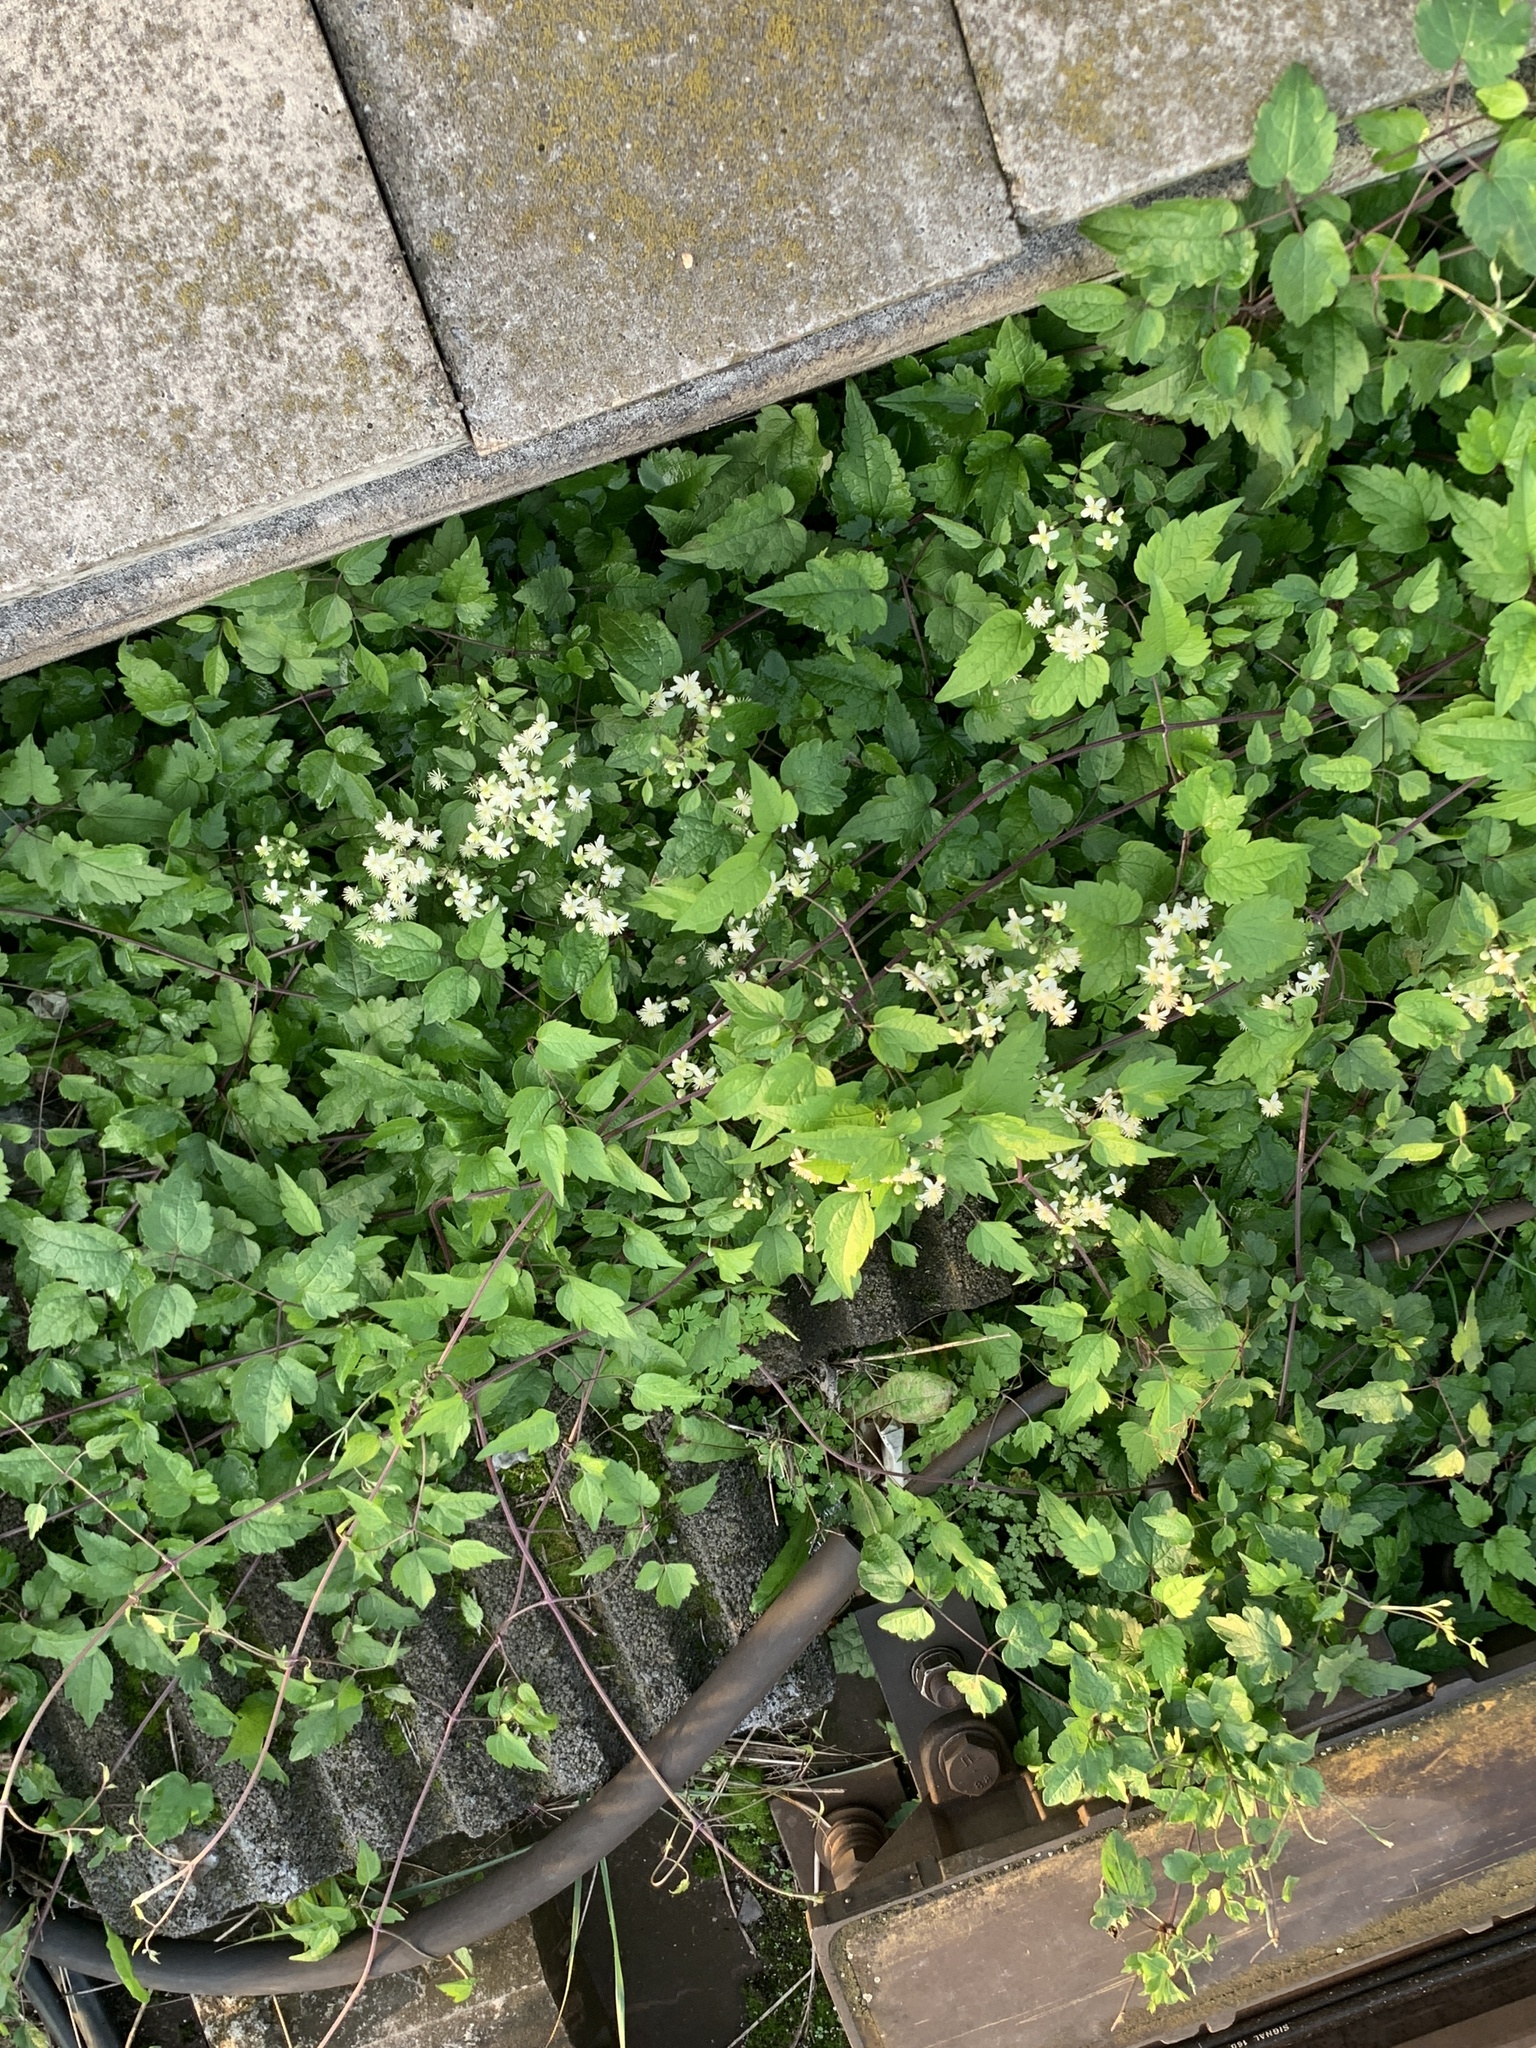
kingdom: Plantae
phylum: Tracheophyta
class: Magnoliopsida
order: Ranunculales
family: Ranunculaceae
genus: Clematis
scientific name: Clematis vitalba
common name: Evergreen clematis
